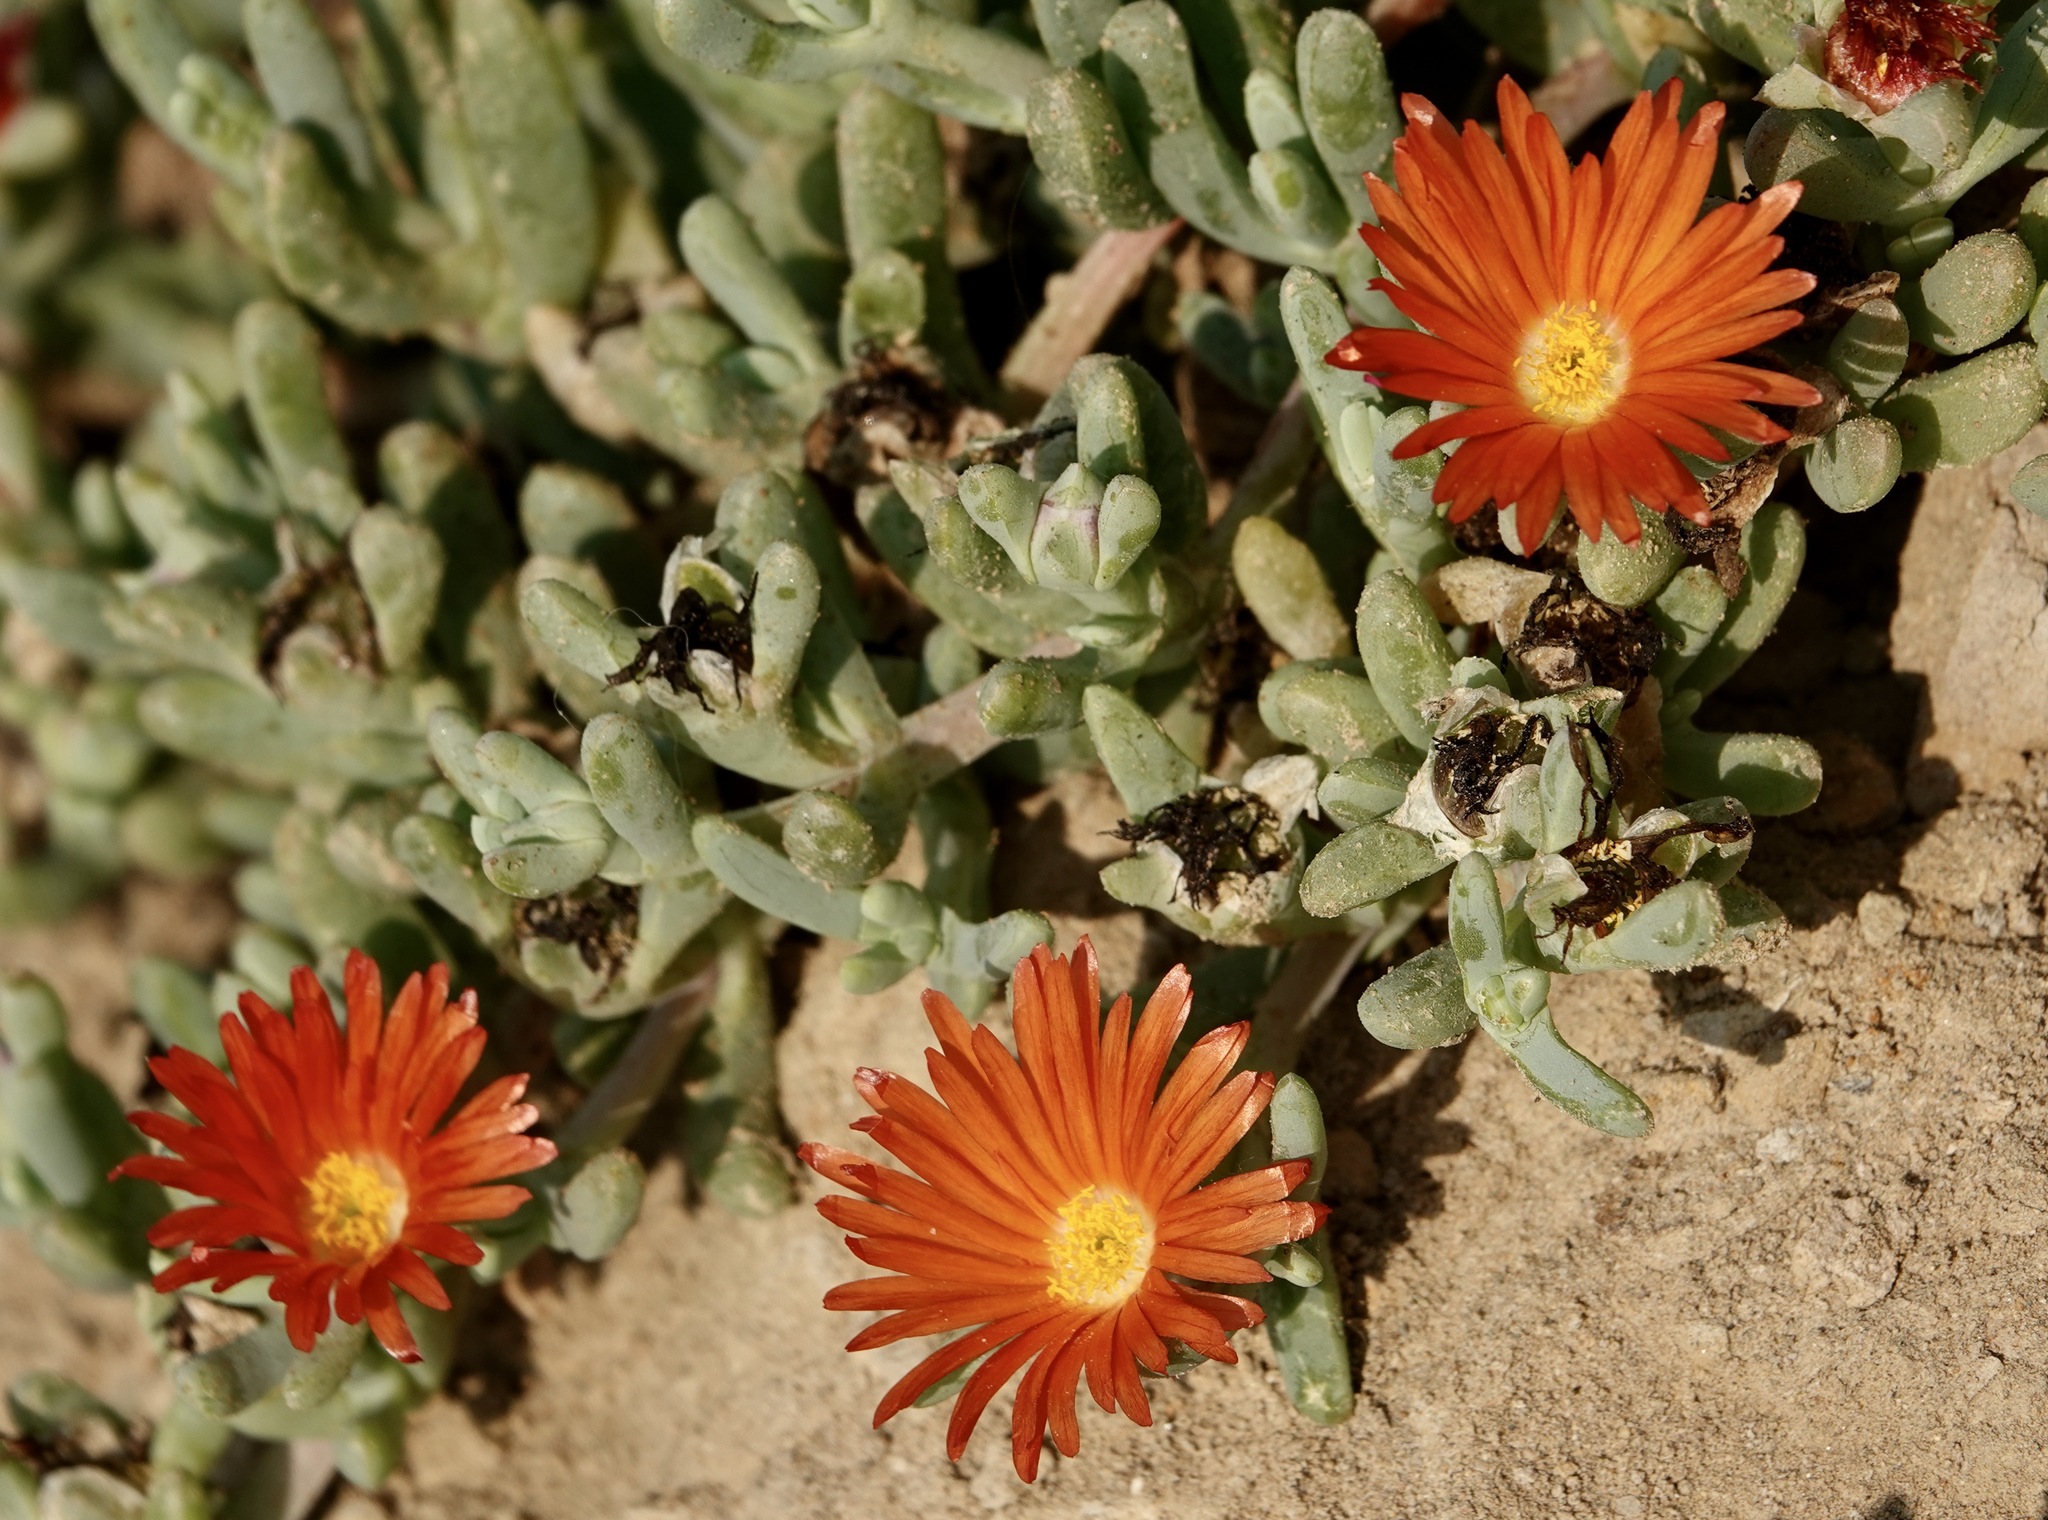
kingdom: Plantae
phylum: Tracheophyta
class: Magnoliopsida
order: Caryophyllales
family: Aizoaceae
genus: Malephora
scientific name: Malephora crocea
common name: Coppery mesemb
